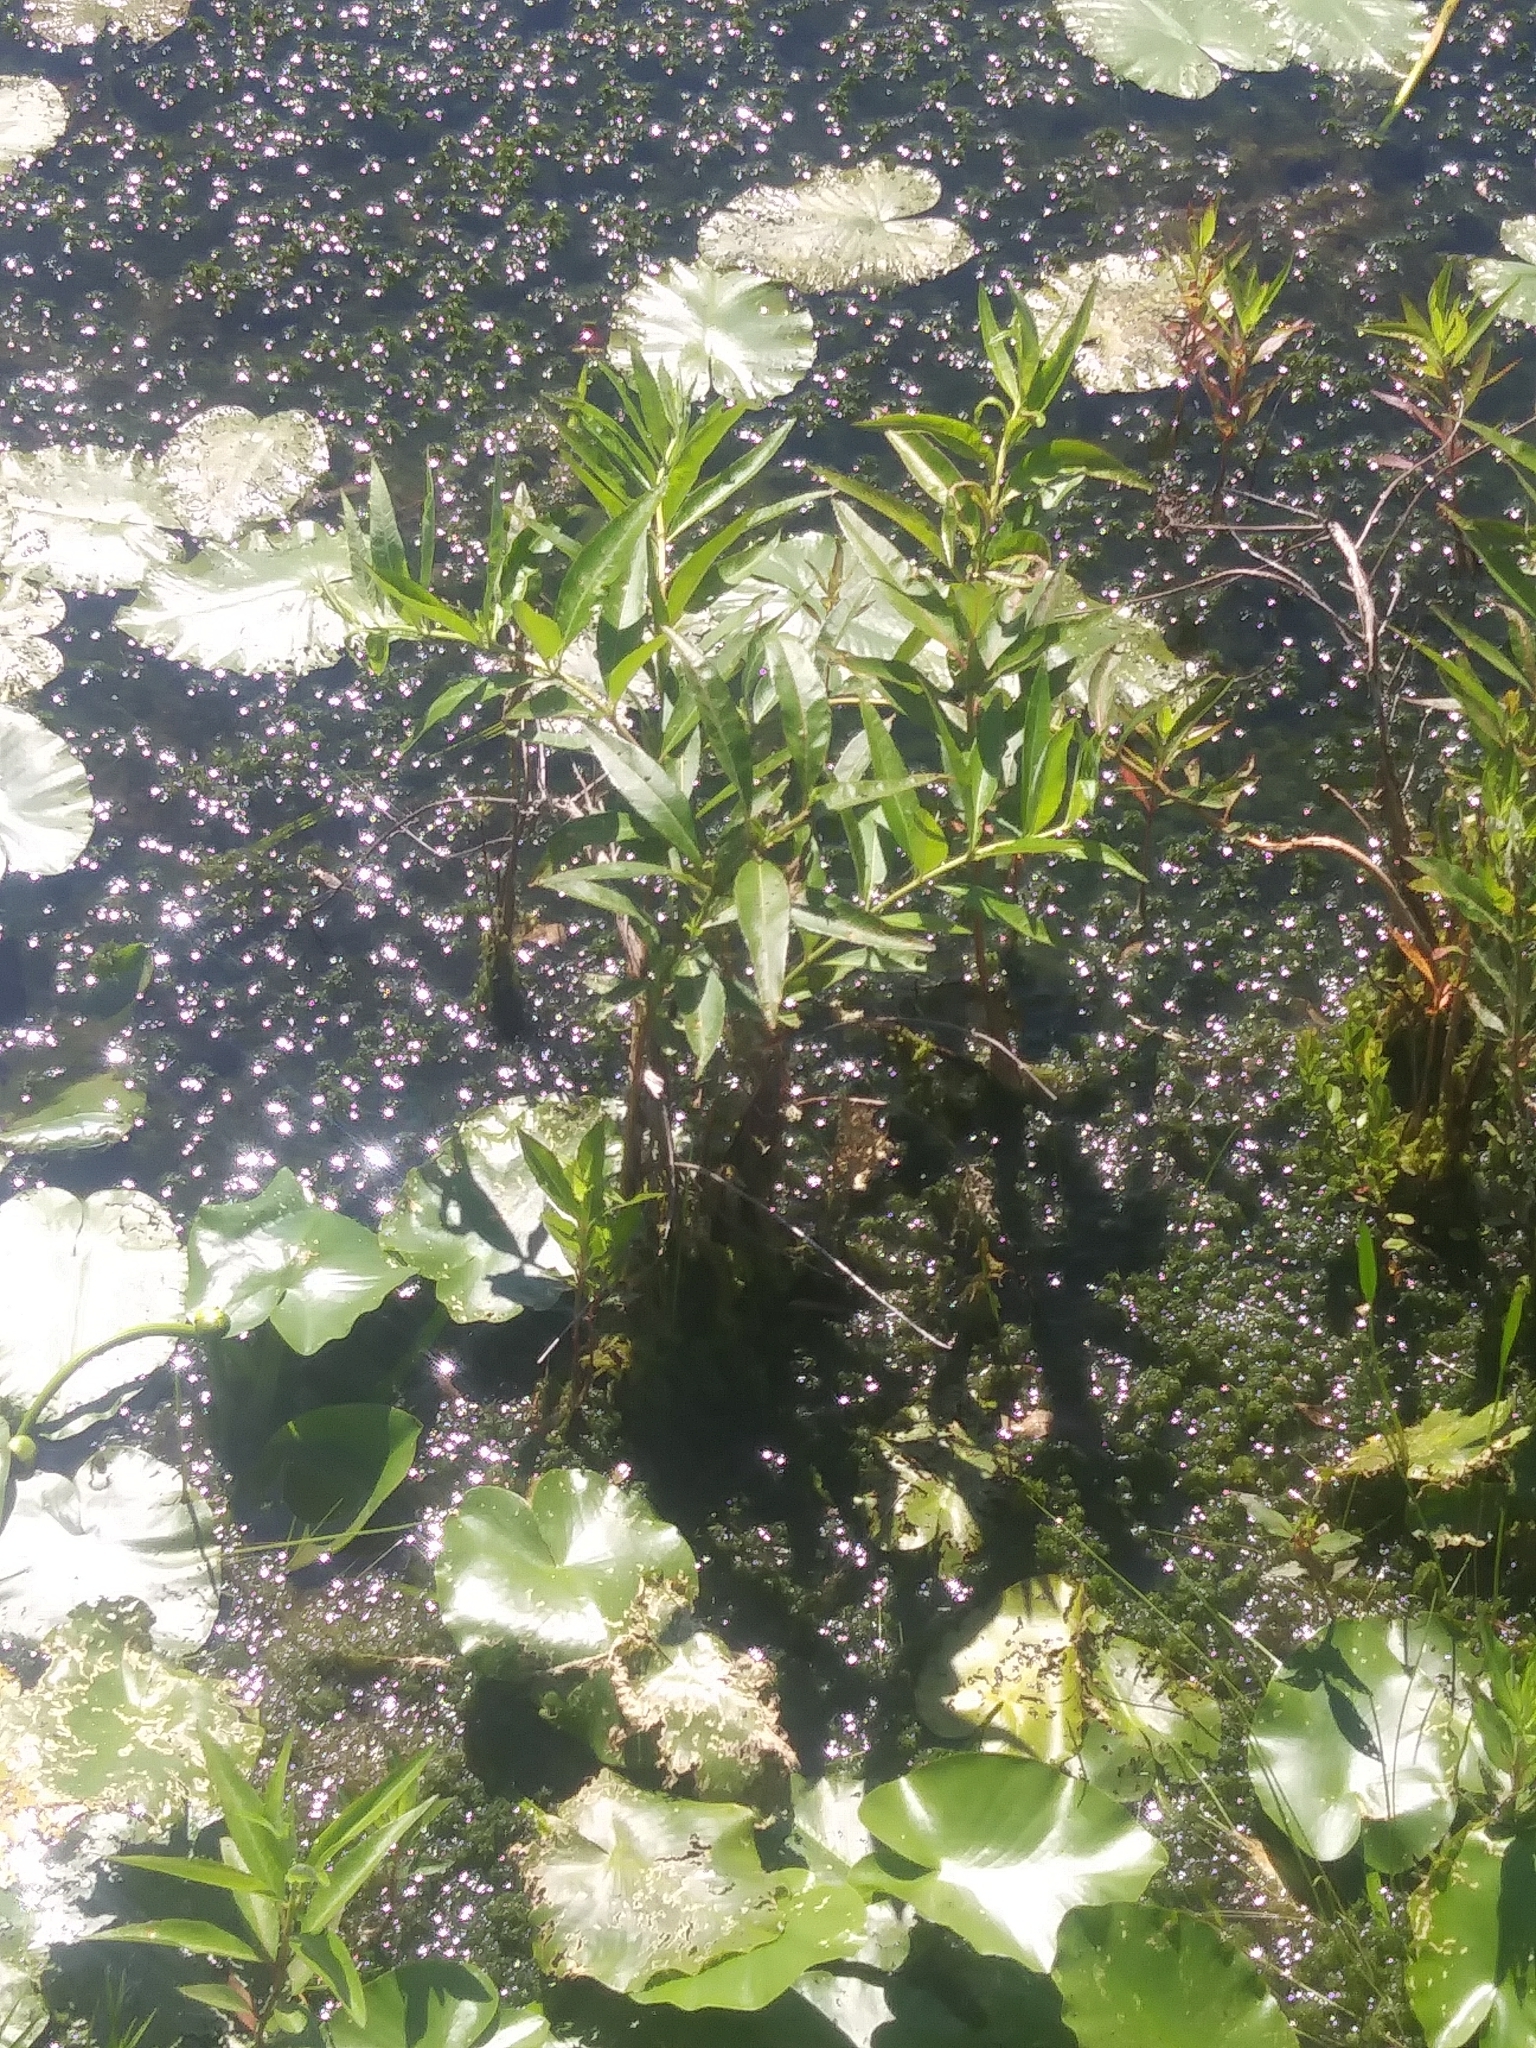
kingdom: Plantae
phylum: Tracheophyta
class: Magnoliopsida
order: Myrtales
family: Lythraceae
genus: Decodon
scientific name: Decodon verticillatus
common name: Hairy swamp loosestrife
